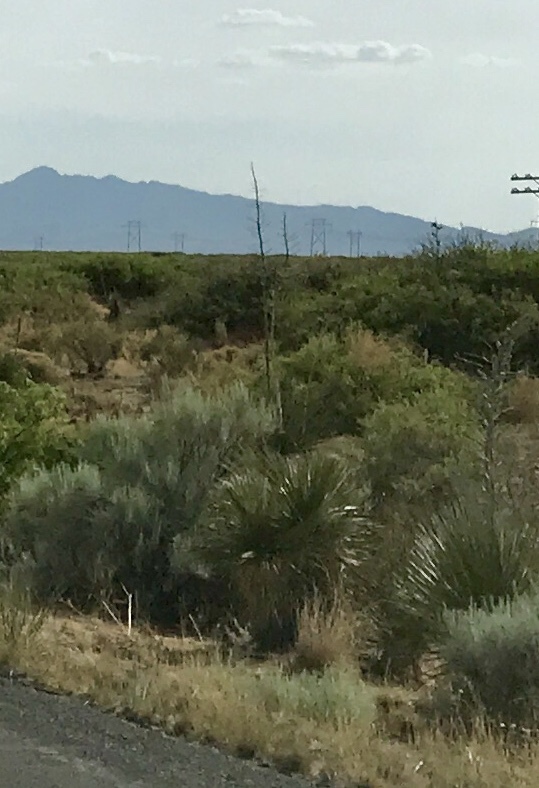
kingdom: Plantae
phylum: Tracheophyta
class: Liliopsida
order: Asparagales
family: Asparagaceae
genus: Yucca
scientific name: Yucca elata
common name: Palmella
